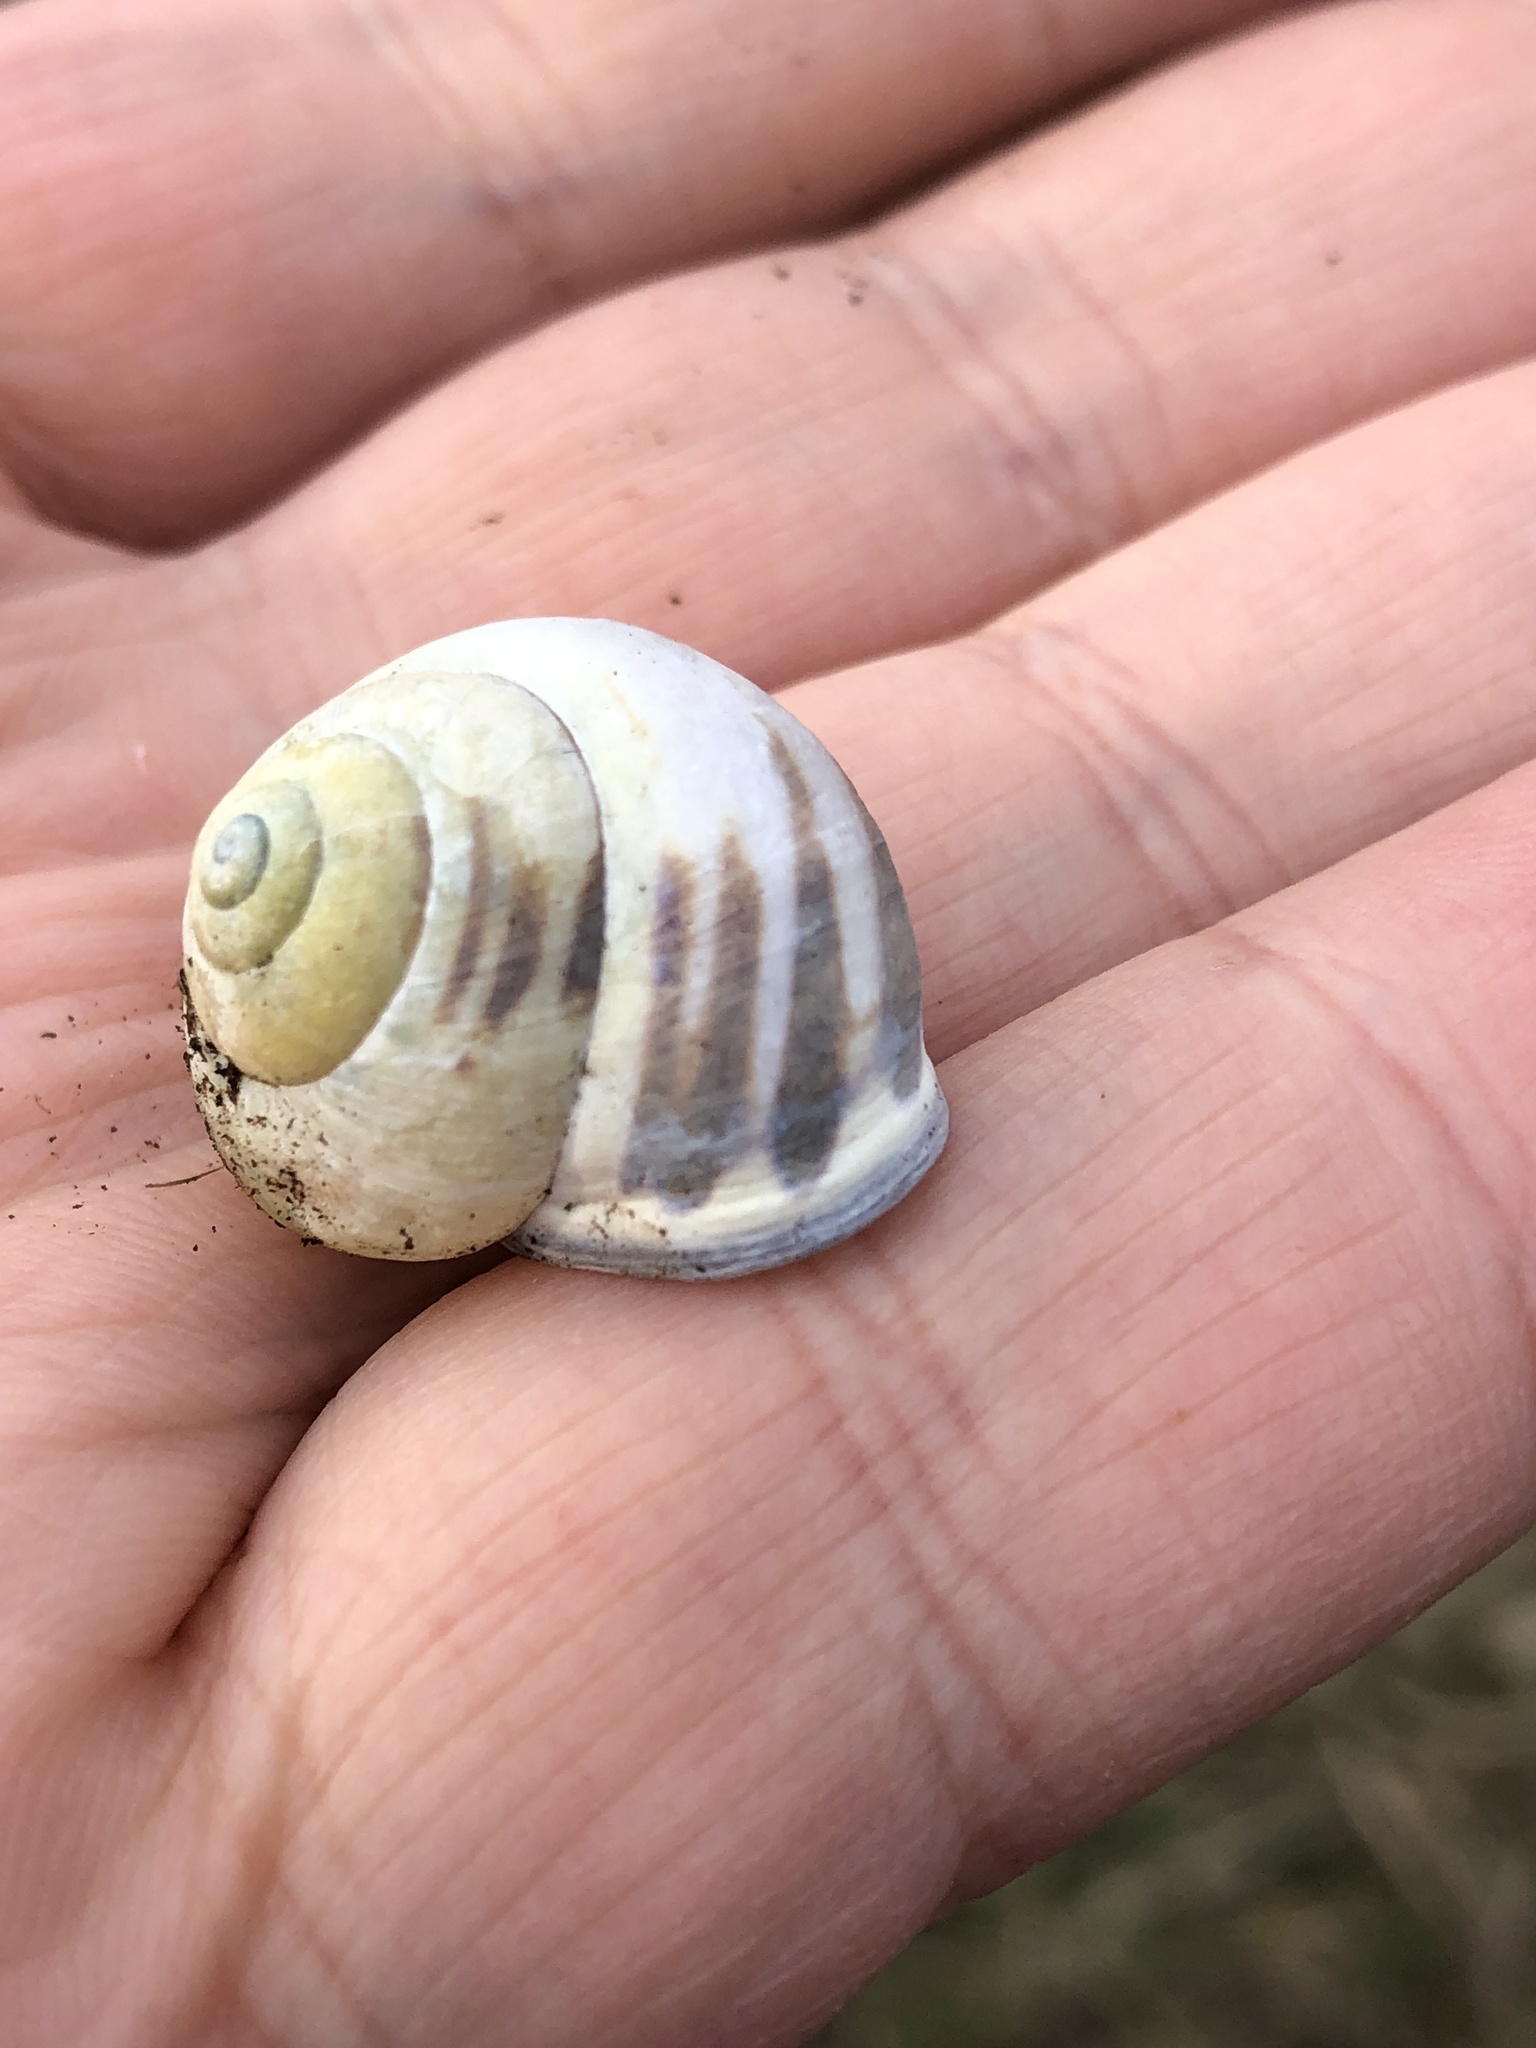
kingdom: Animalia
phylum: Mollusca
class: Gastropoda
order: Stylommatophora
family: Helicidae
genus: Cepaea
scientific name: Cepaea nemoralis
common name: Grovesnail
